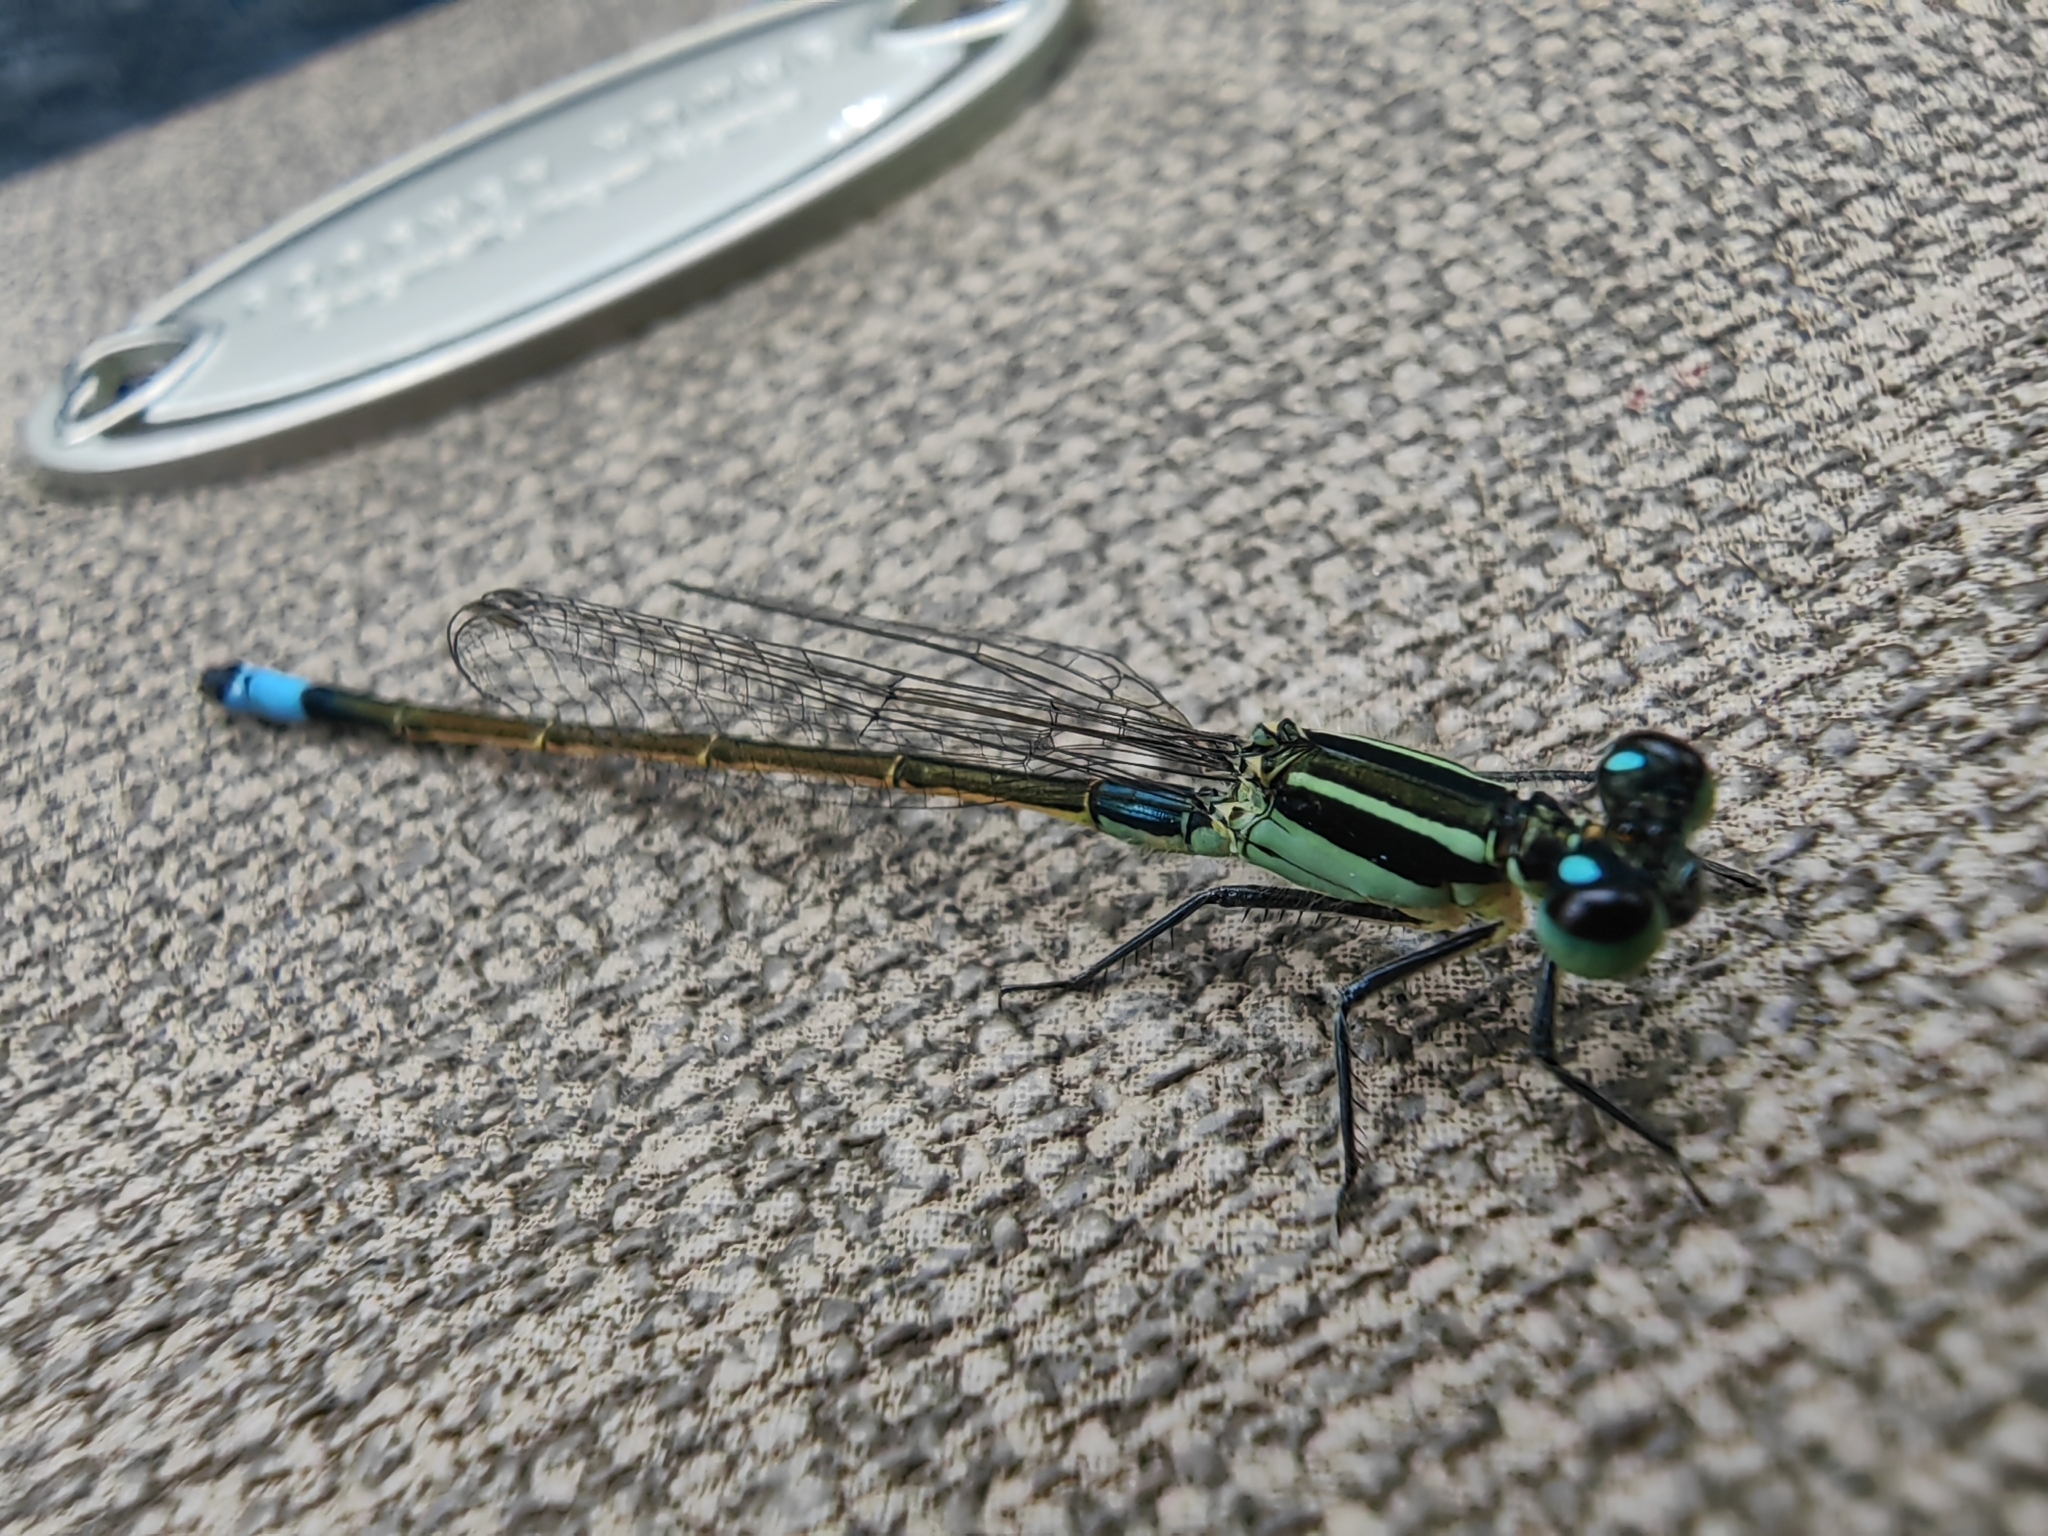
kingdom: Animalia
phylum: Arthropoda
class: Insecta
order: Odonata
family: Coenagrionidae
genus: Ischnura
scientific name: Ischnura ramburii
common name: Rambur's forktail
